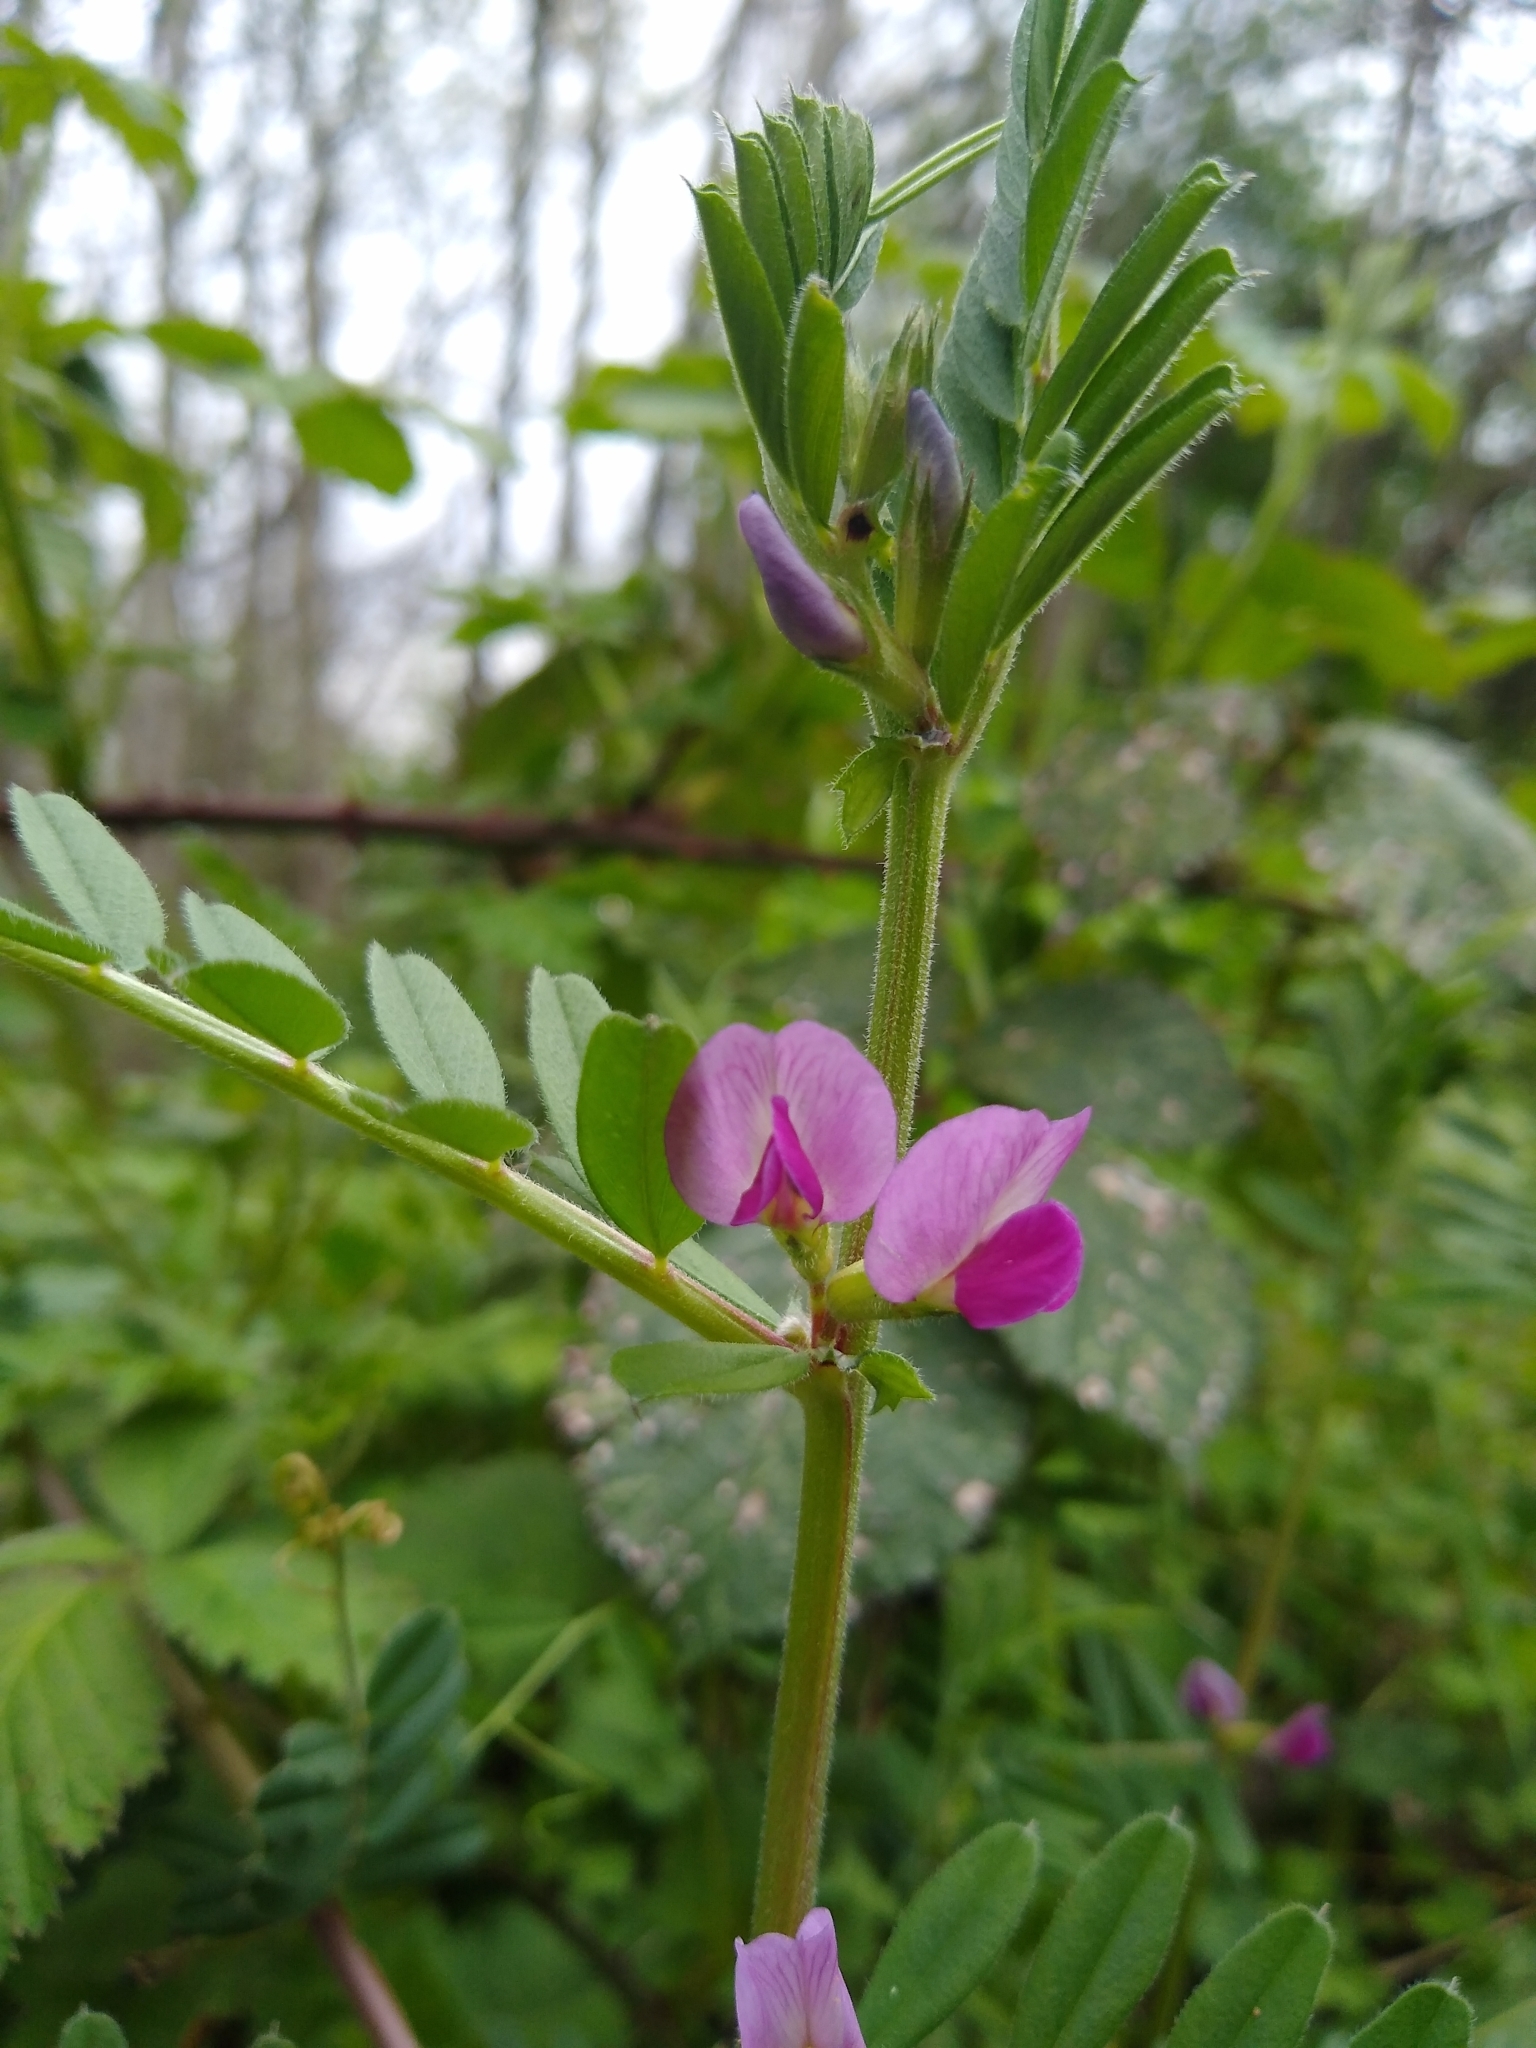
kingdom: Plantae
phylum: Tracheophyta
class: Magnoliopsida
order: Fabales
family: Fabaceae
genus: Vicia
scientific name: Vicia sativa
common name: Garden vetch
